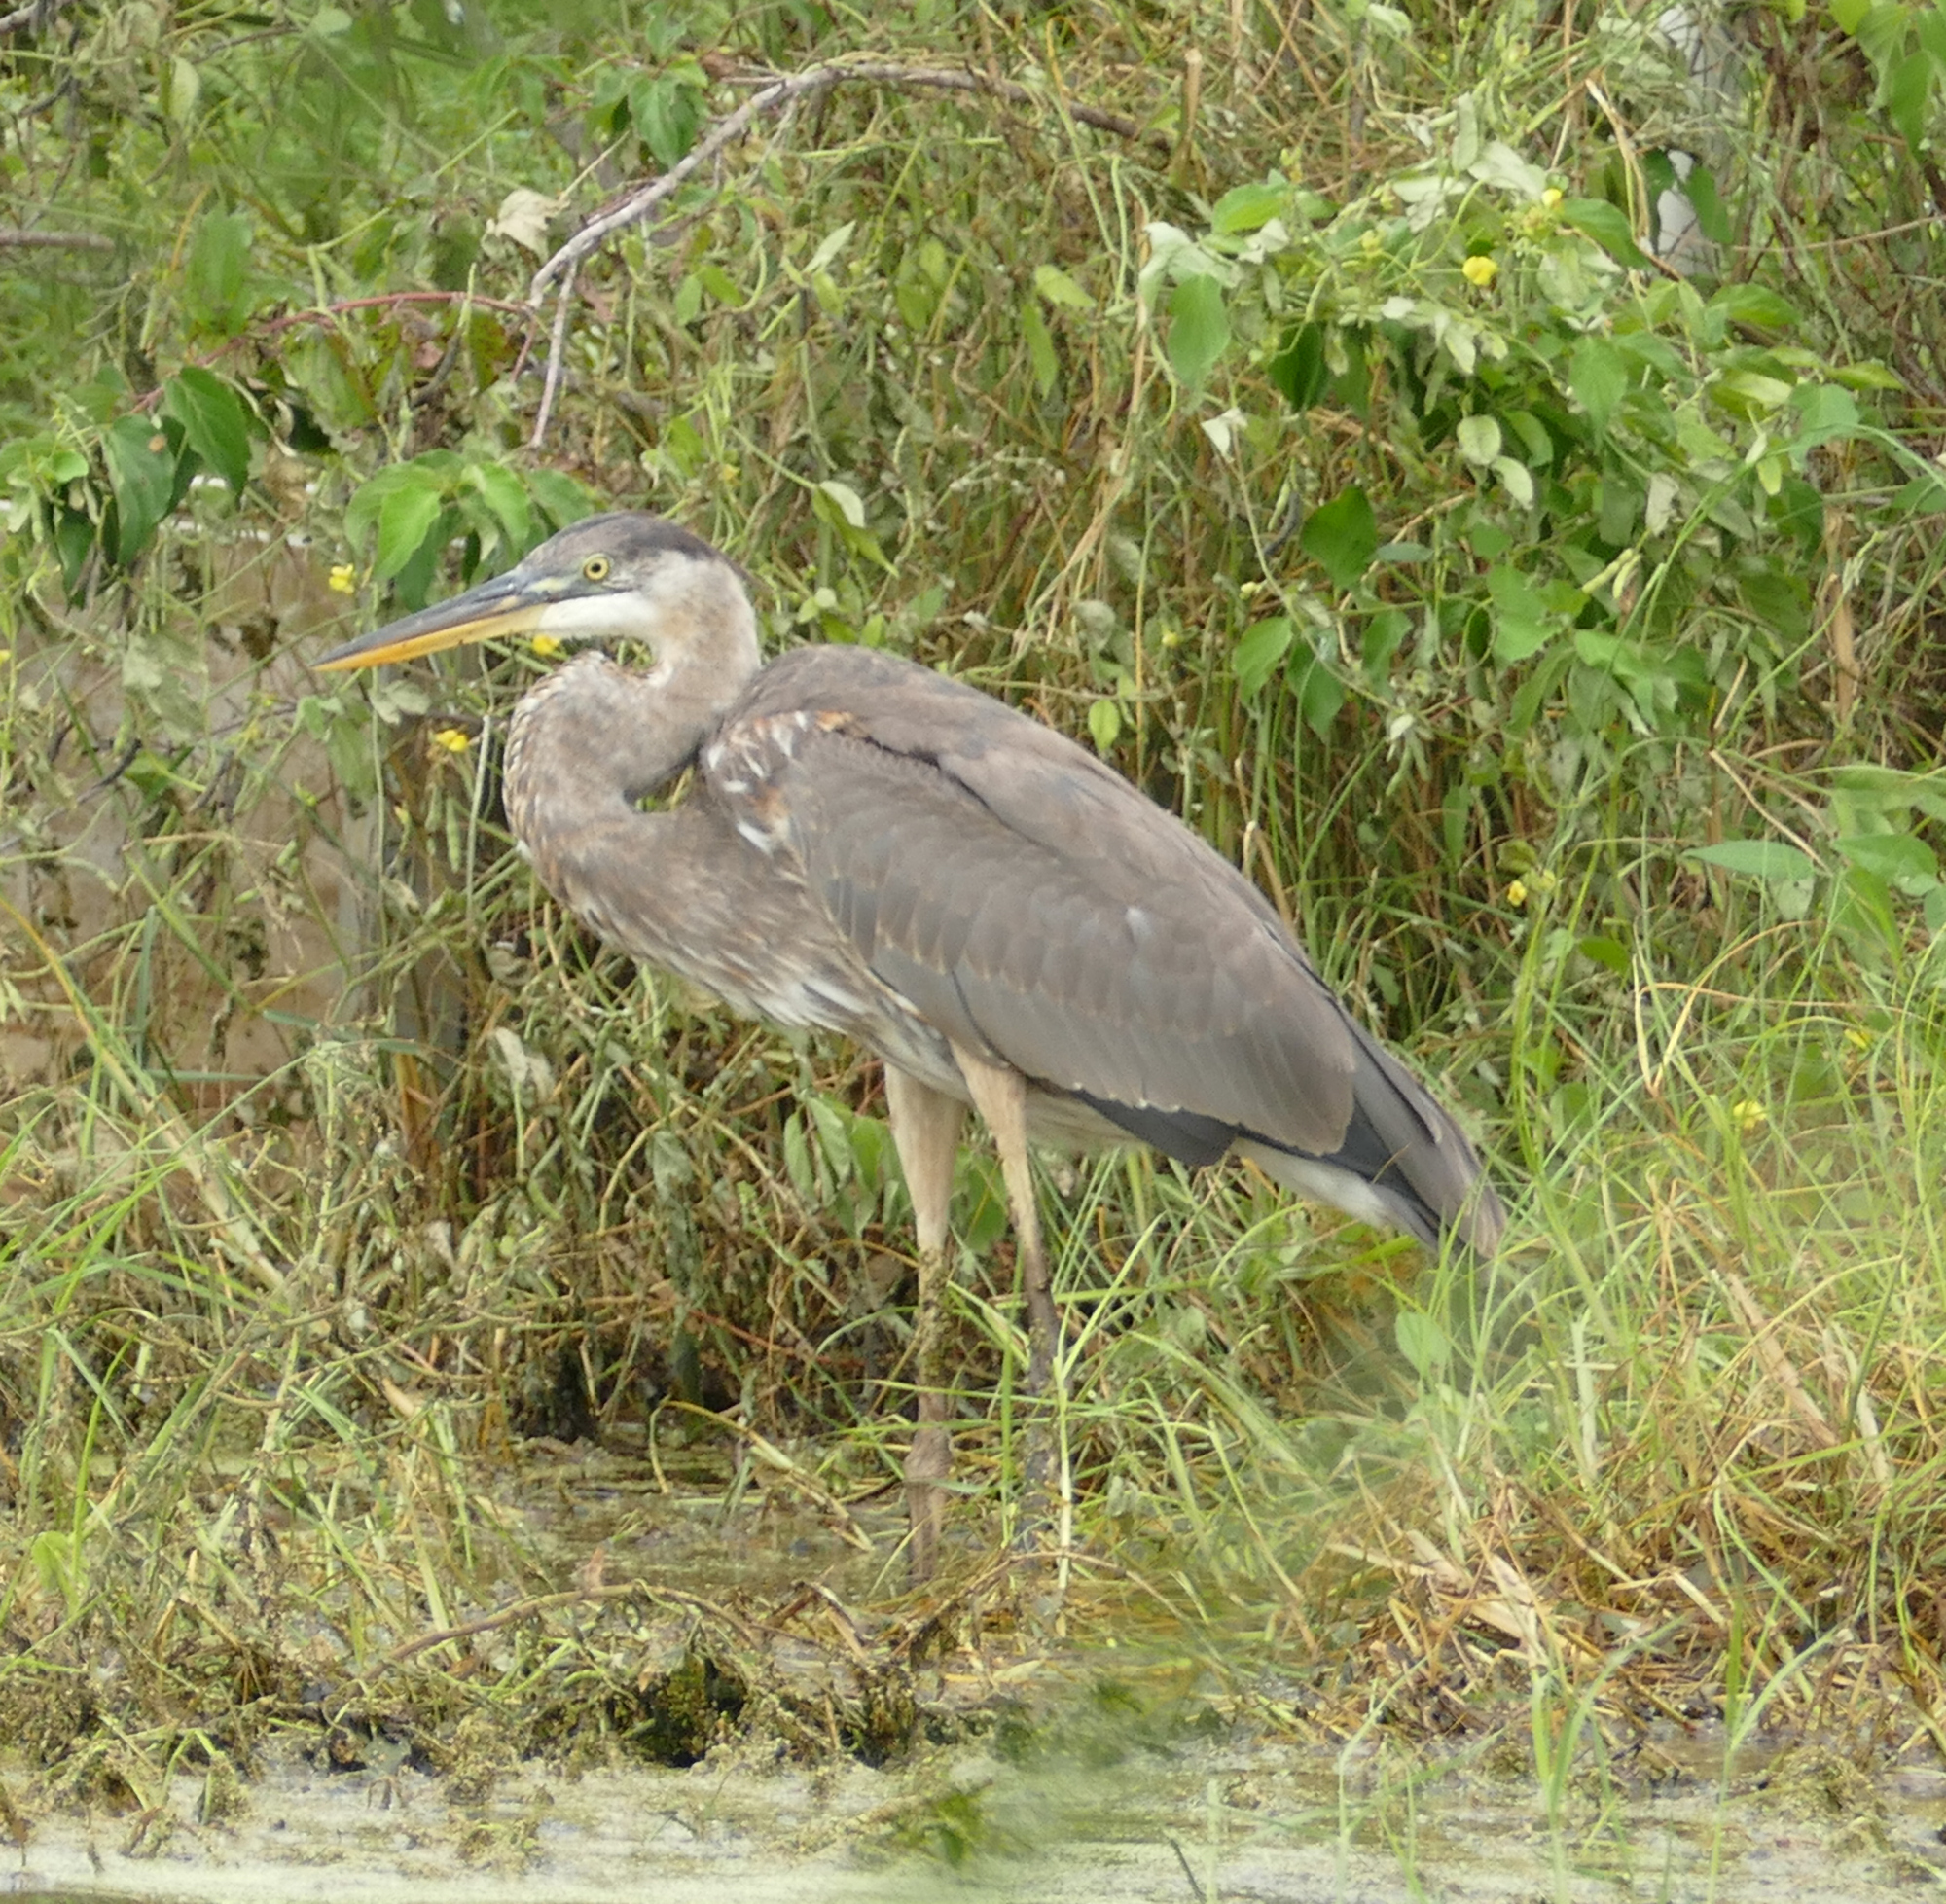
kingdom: Animalia
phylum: Chordata
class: Aves
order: Pelecaniformes
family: Ardeidae
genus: Ardea
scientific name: Ardea herodias
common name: Great blue heron
